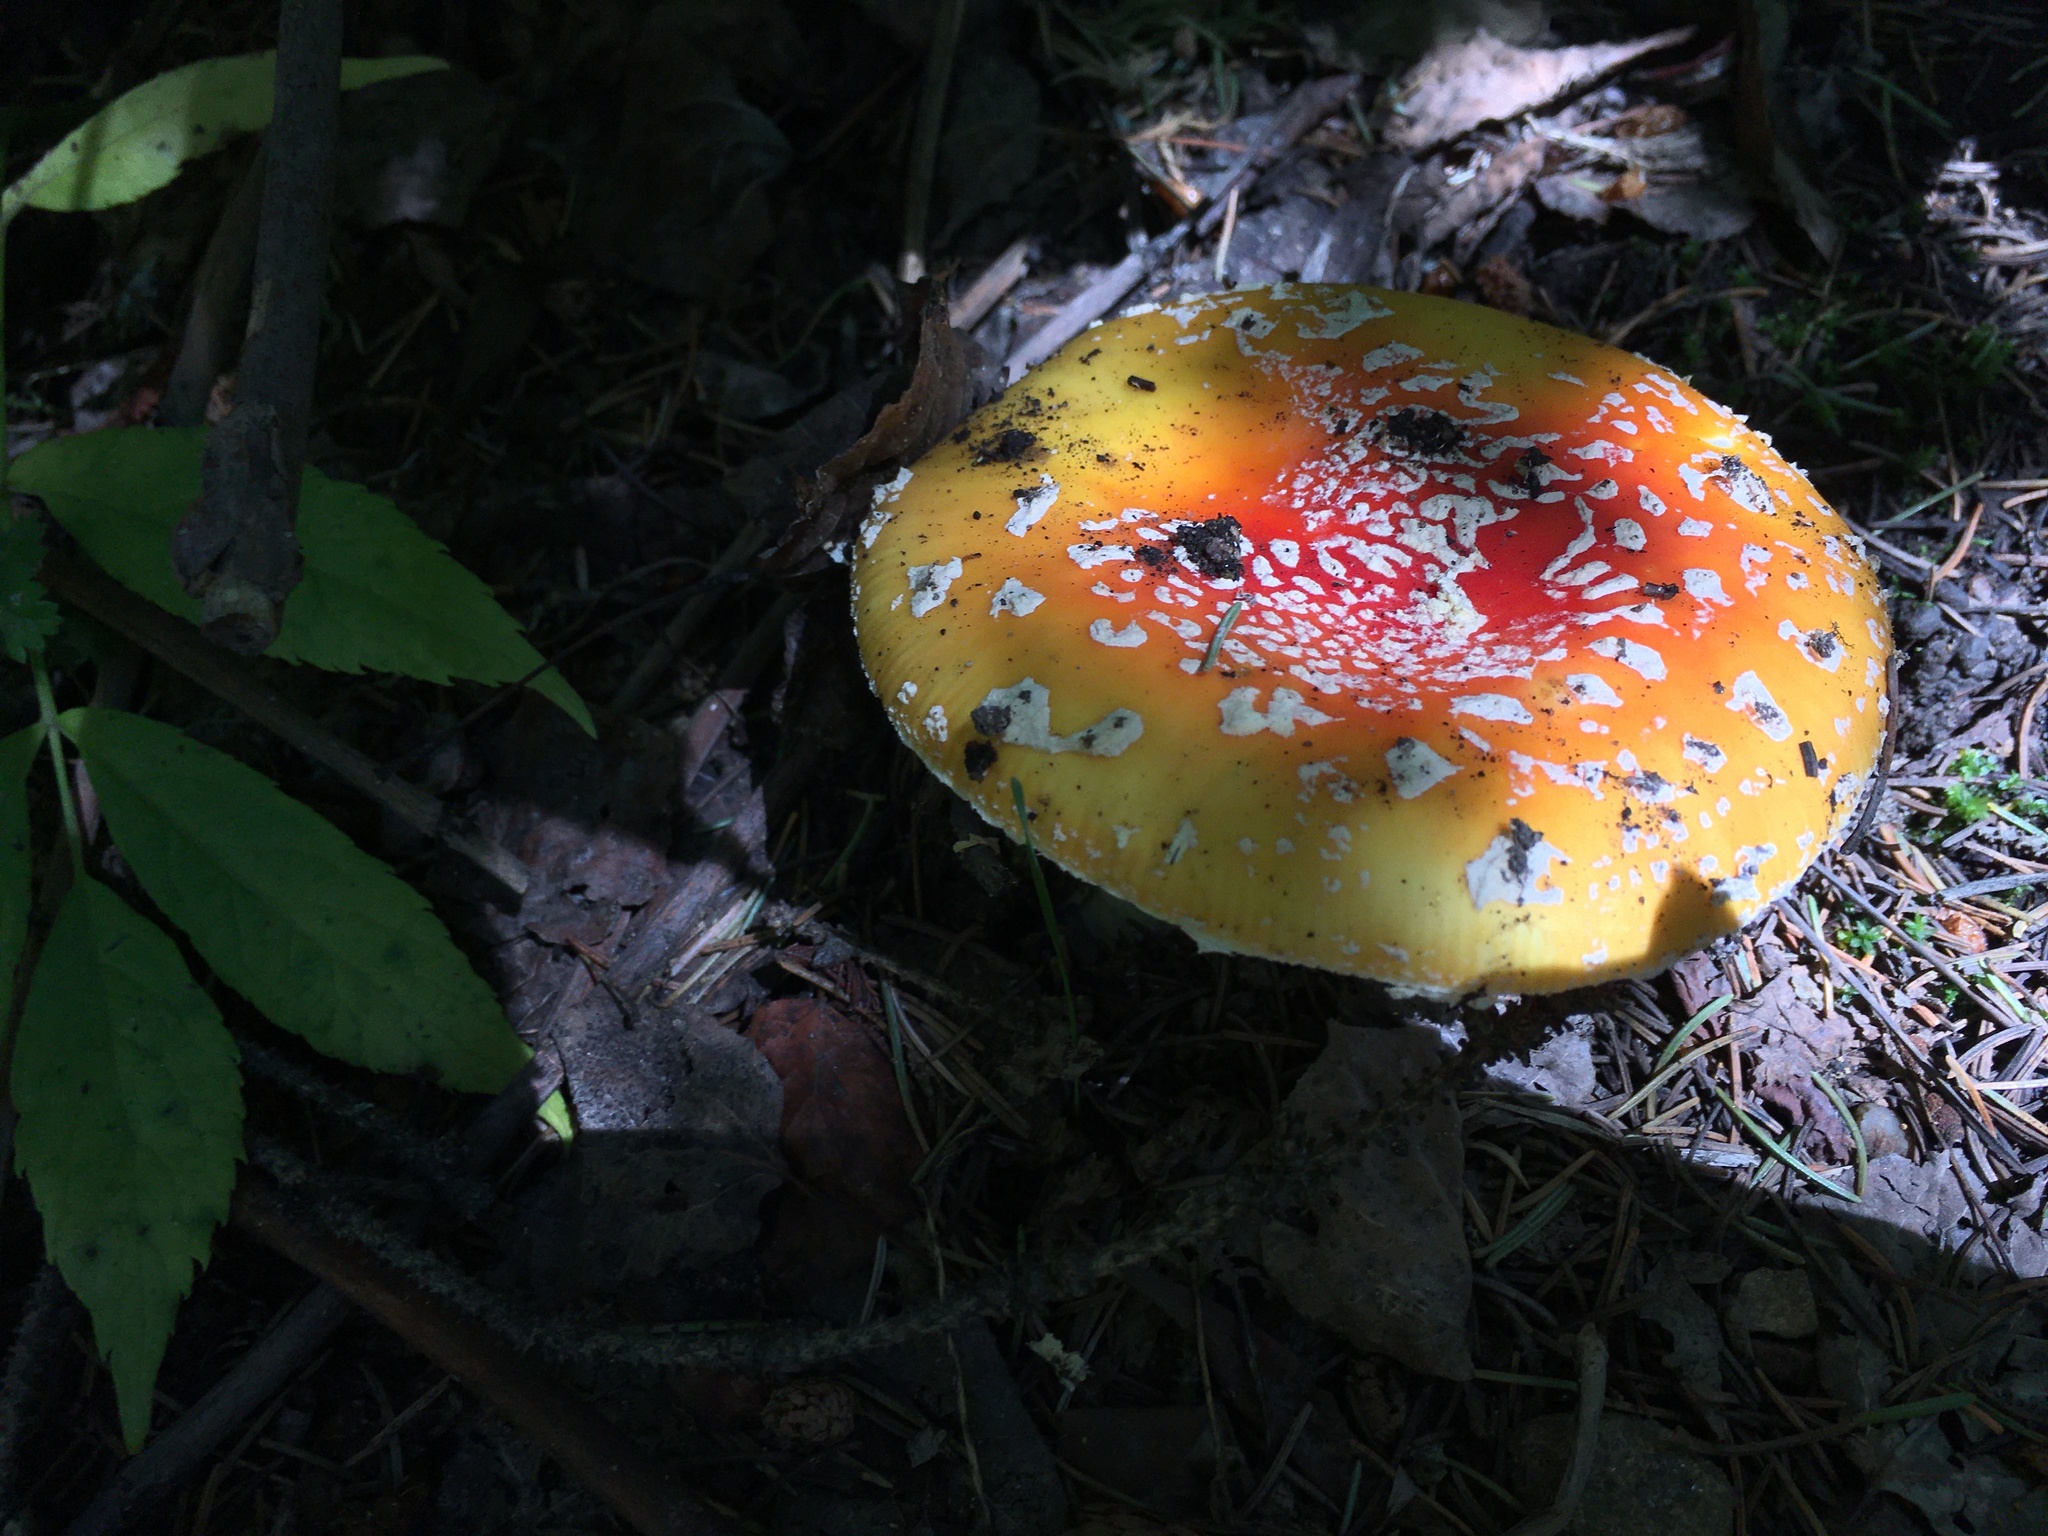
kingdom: Fungi
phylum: Basidiomycota
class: Agaricomycetes
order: Agaricales
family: Amanitaceae
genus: Amanita
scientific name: Amanita muscaria
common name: Fly agaric
